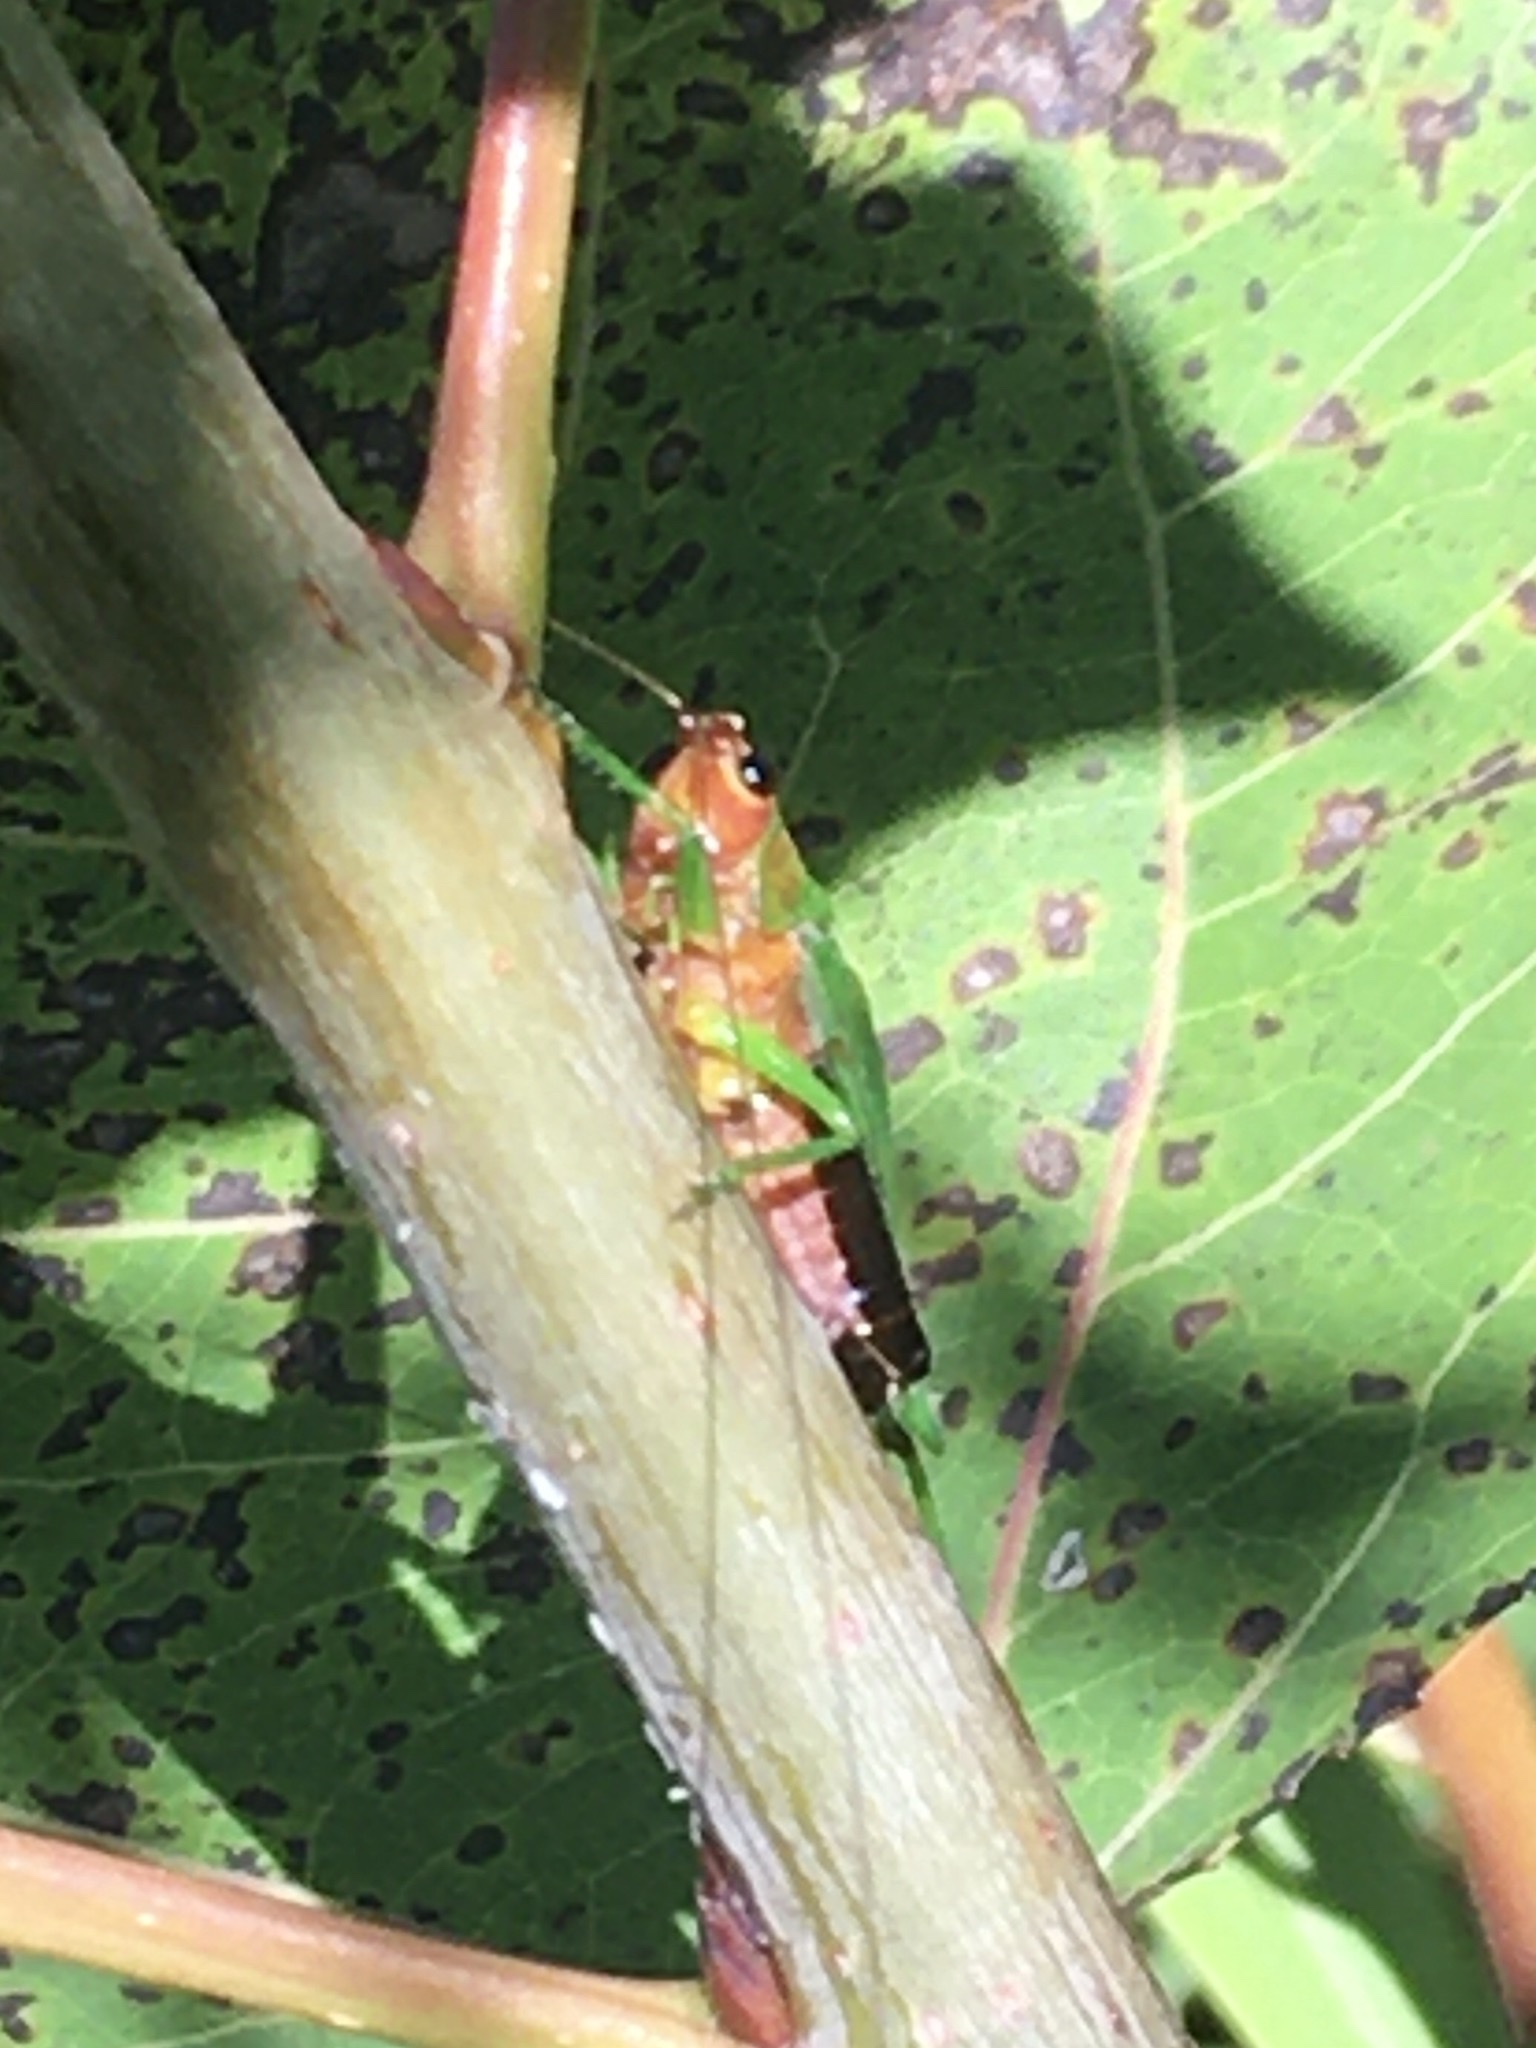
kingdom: Animalia
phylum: Arthropoda
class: Insecta
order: Orthoptera
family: Tettigoniidae
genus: Conocephalus
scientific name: Conocephalus nigropleurum
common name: Black-sided meadow katydid
